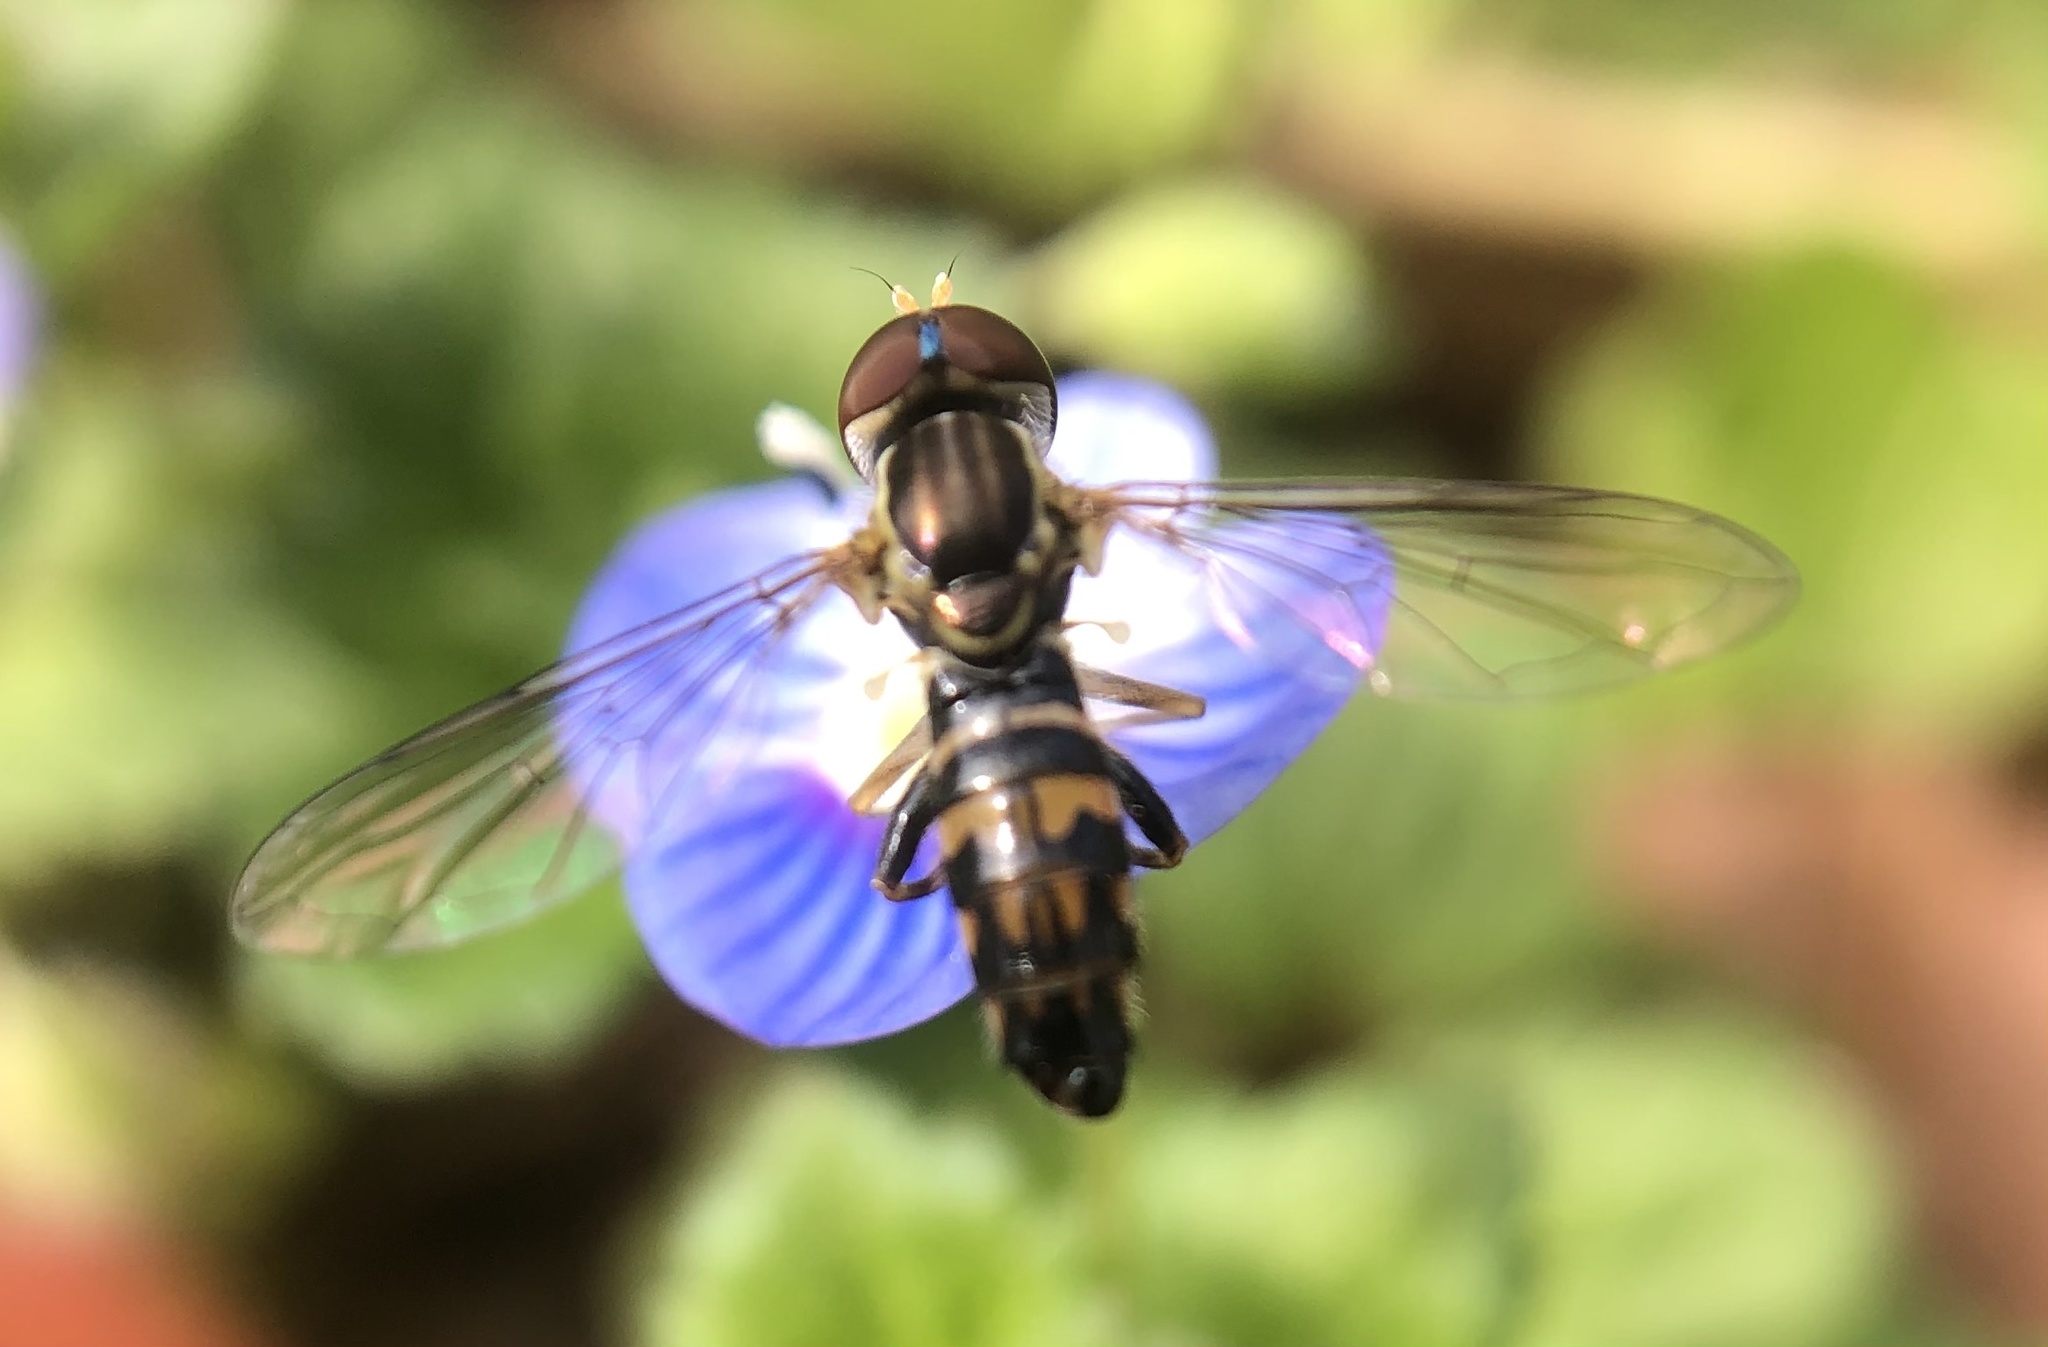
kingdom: Animalia
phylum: Arthropoda
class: Insecta
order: Diptera
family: Syrphidae
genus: Toxomerus
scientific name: Toxomerus geminatus
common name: Eastern calligrapher
